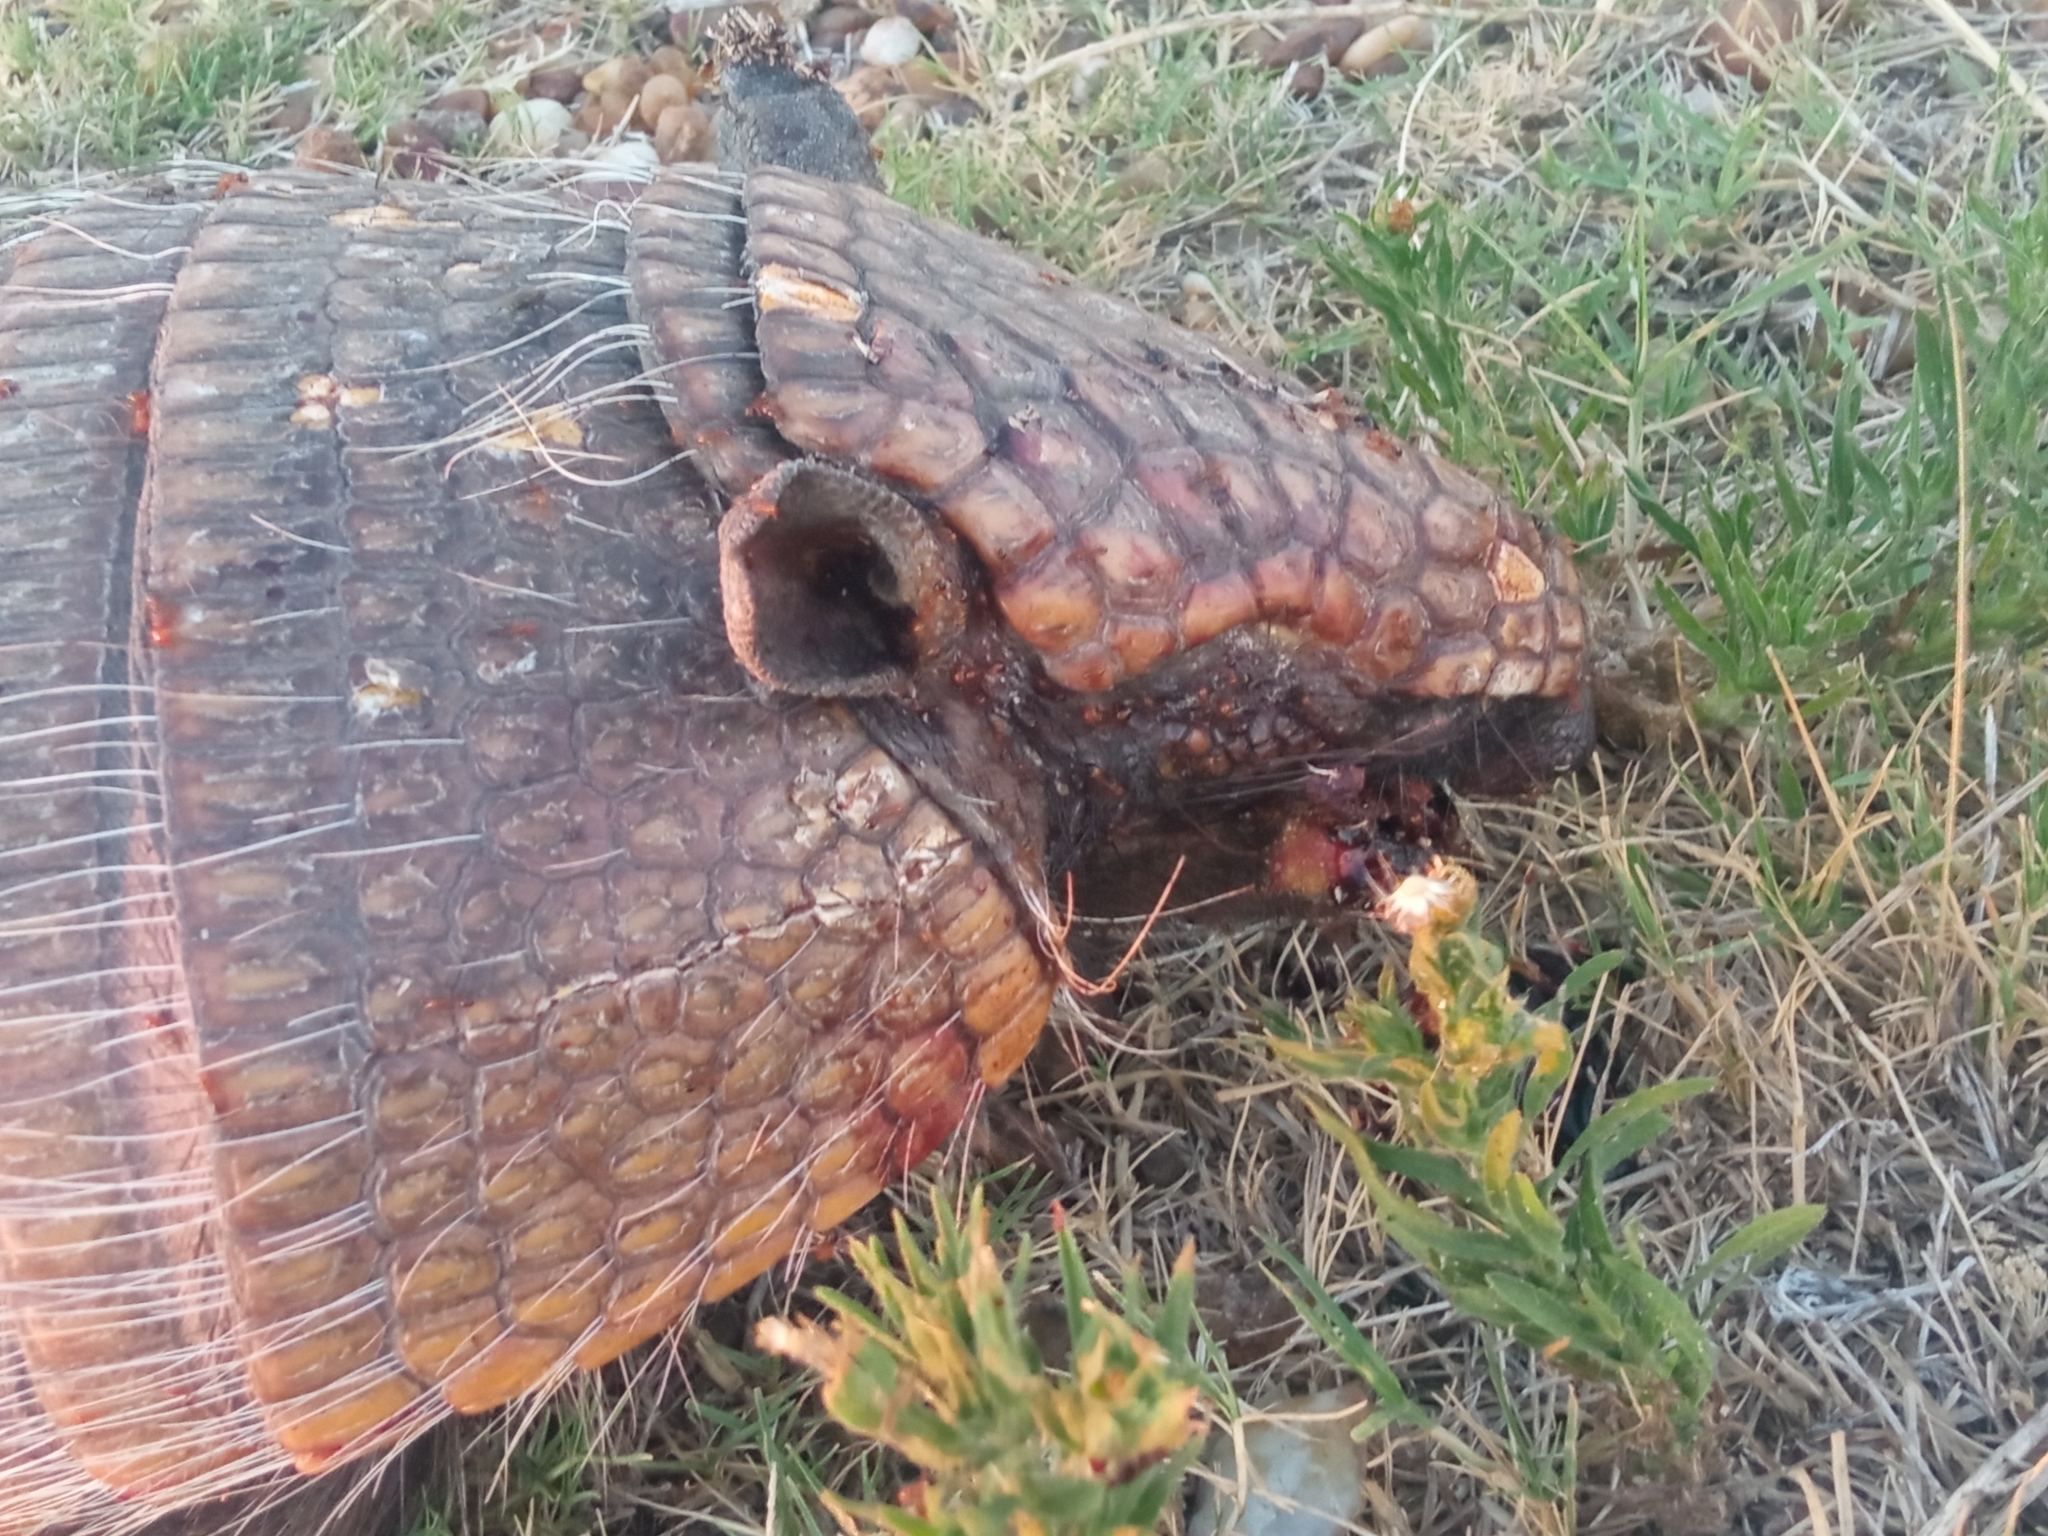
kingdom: Animalia
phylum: Chordata
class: Mammalia
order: Cingulata
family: Dasypodidae
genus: Euphractus
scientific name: Euphractus sexcinctus
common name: Six-banded armadillo
